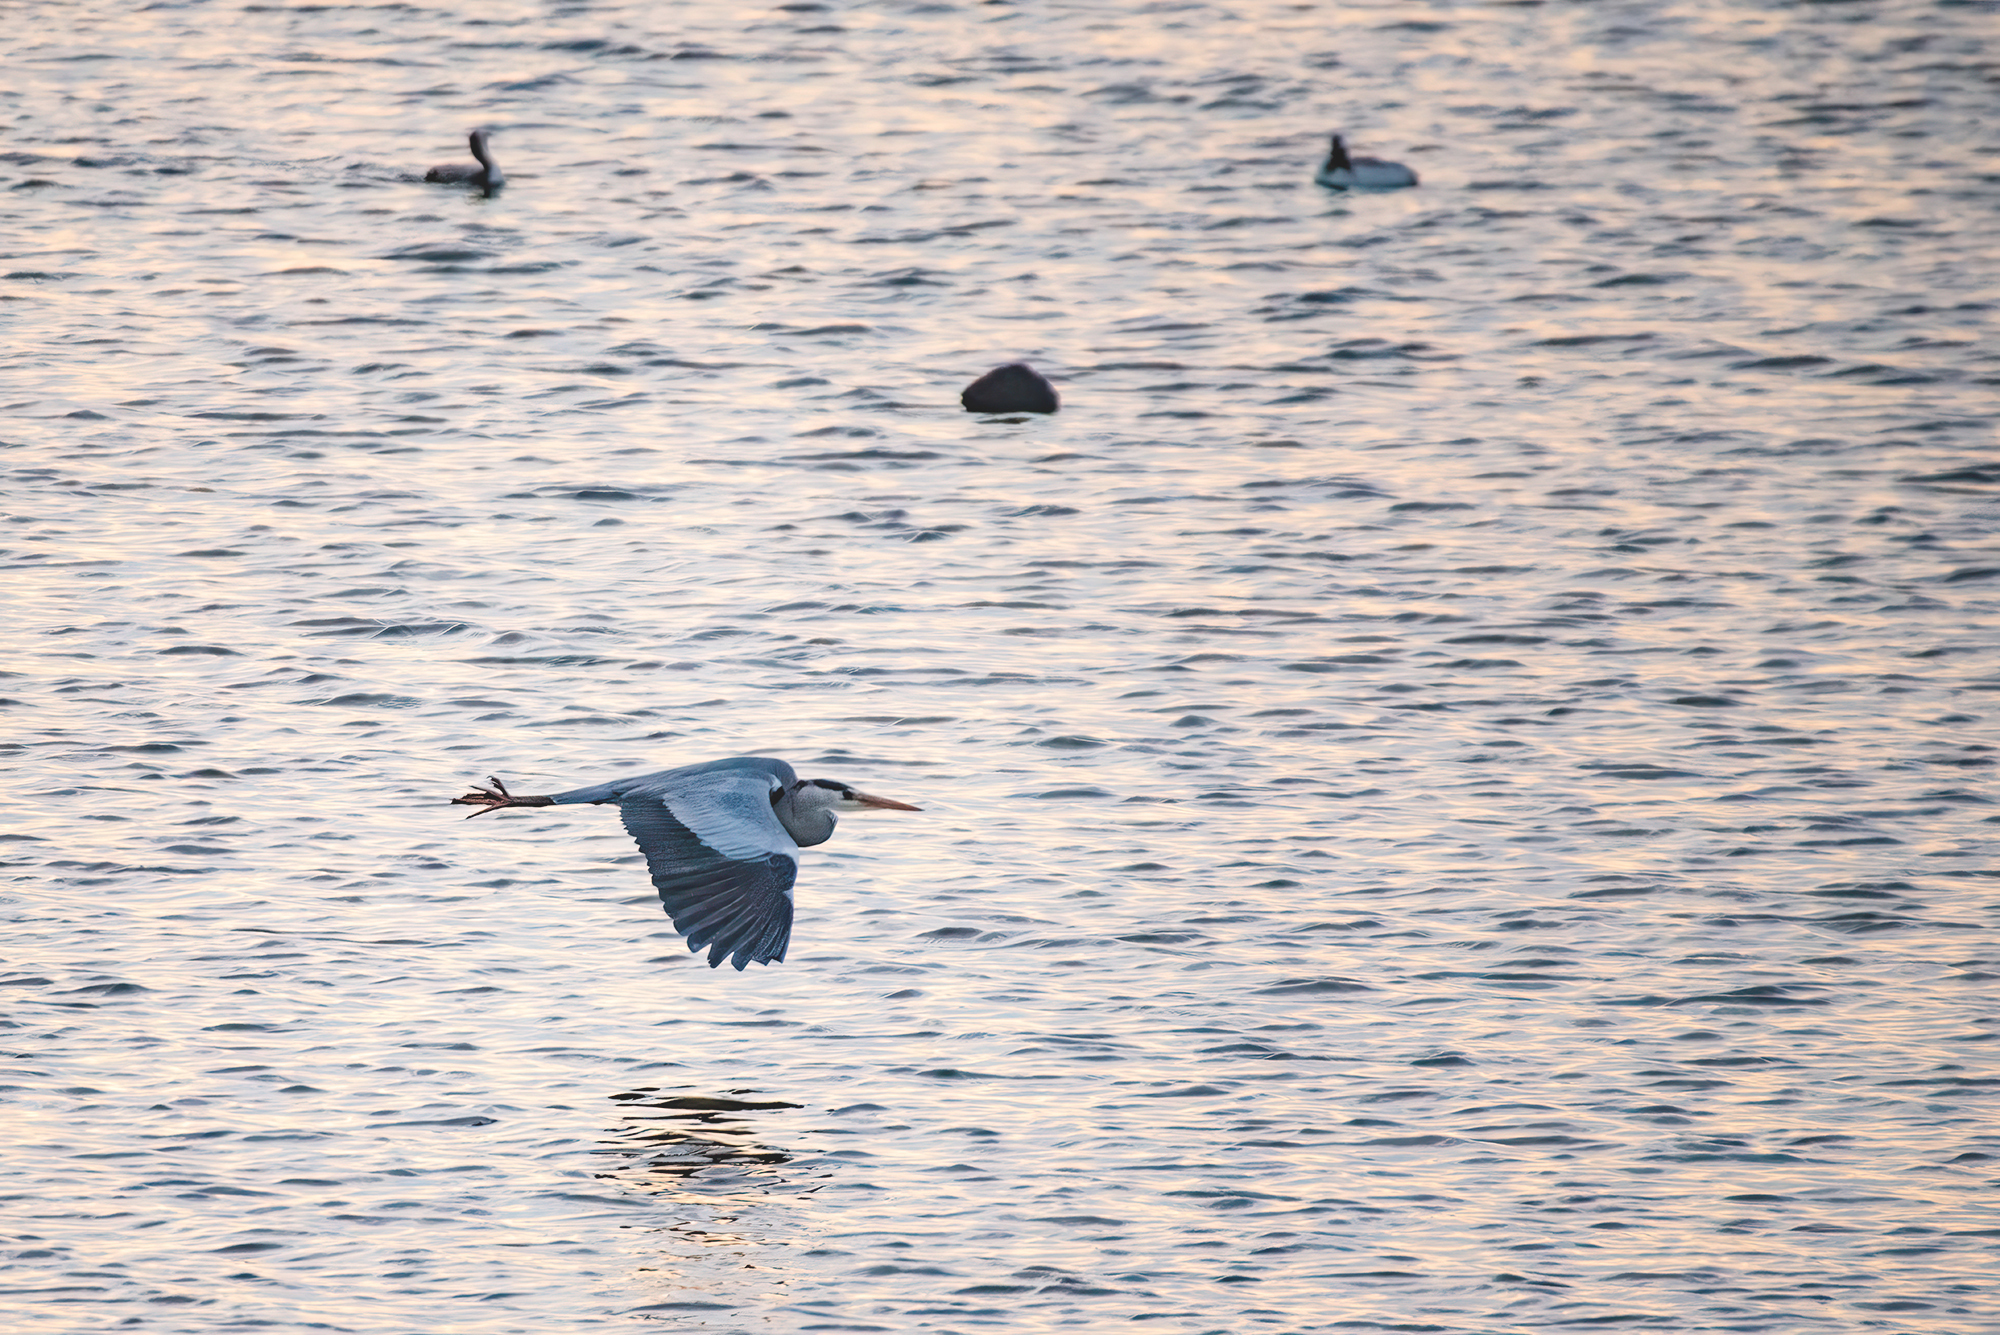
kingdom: Animalia
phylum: Chordata
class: Aves
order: Pelecaniformes
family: Ardeidae
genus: Ardea
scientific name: Ardea cinerea
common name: Grey heron
